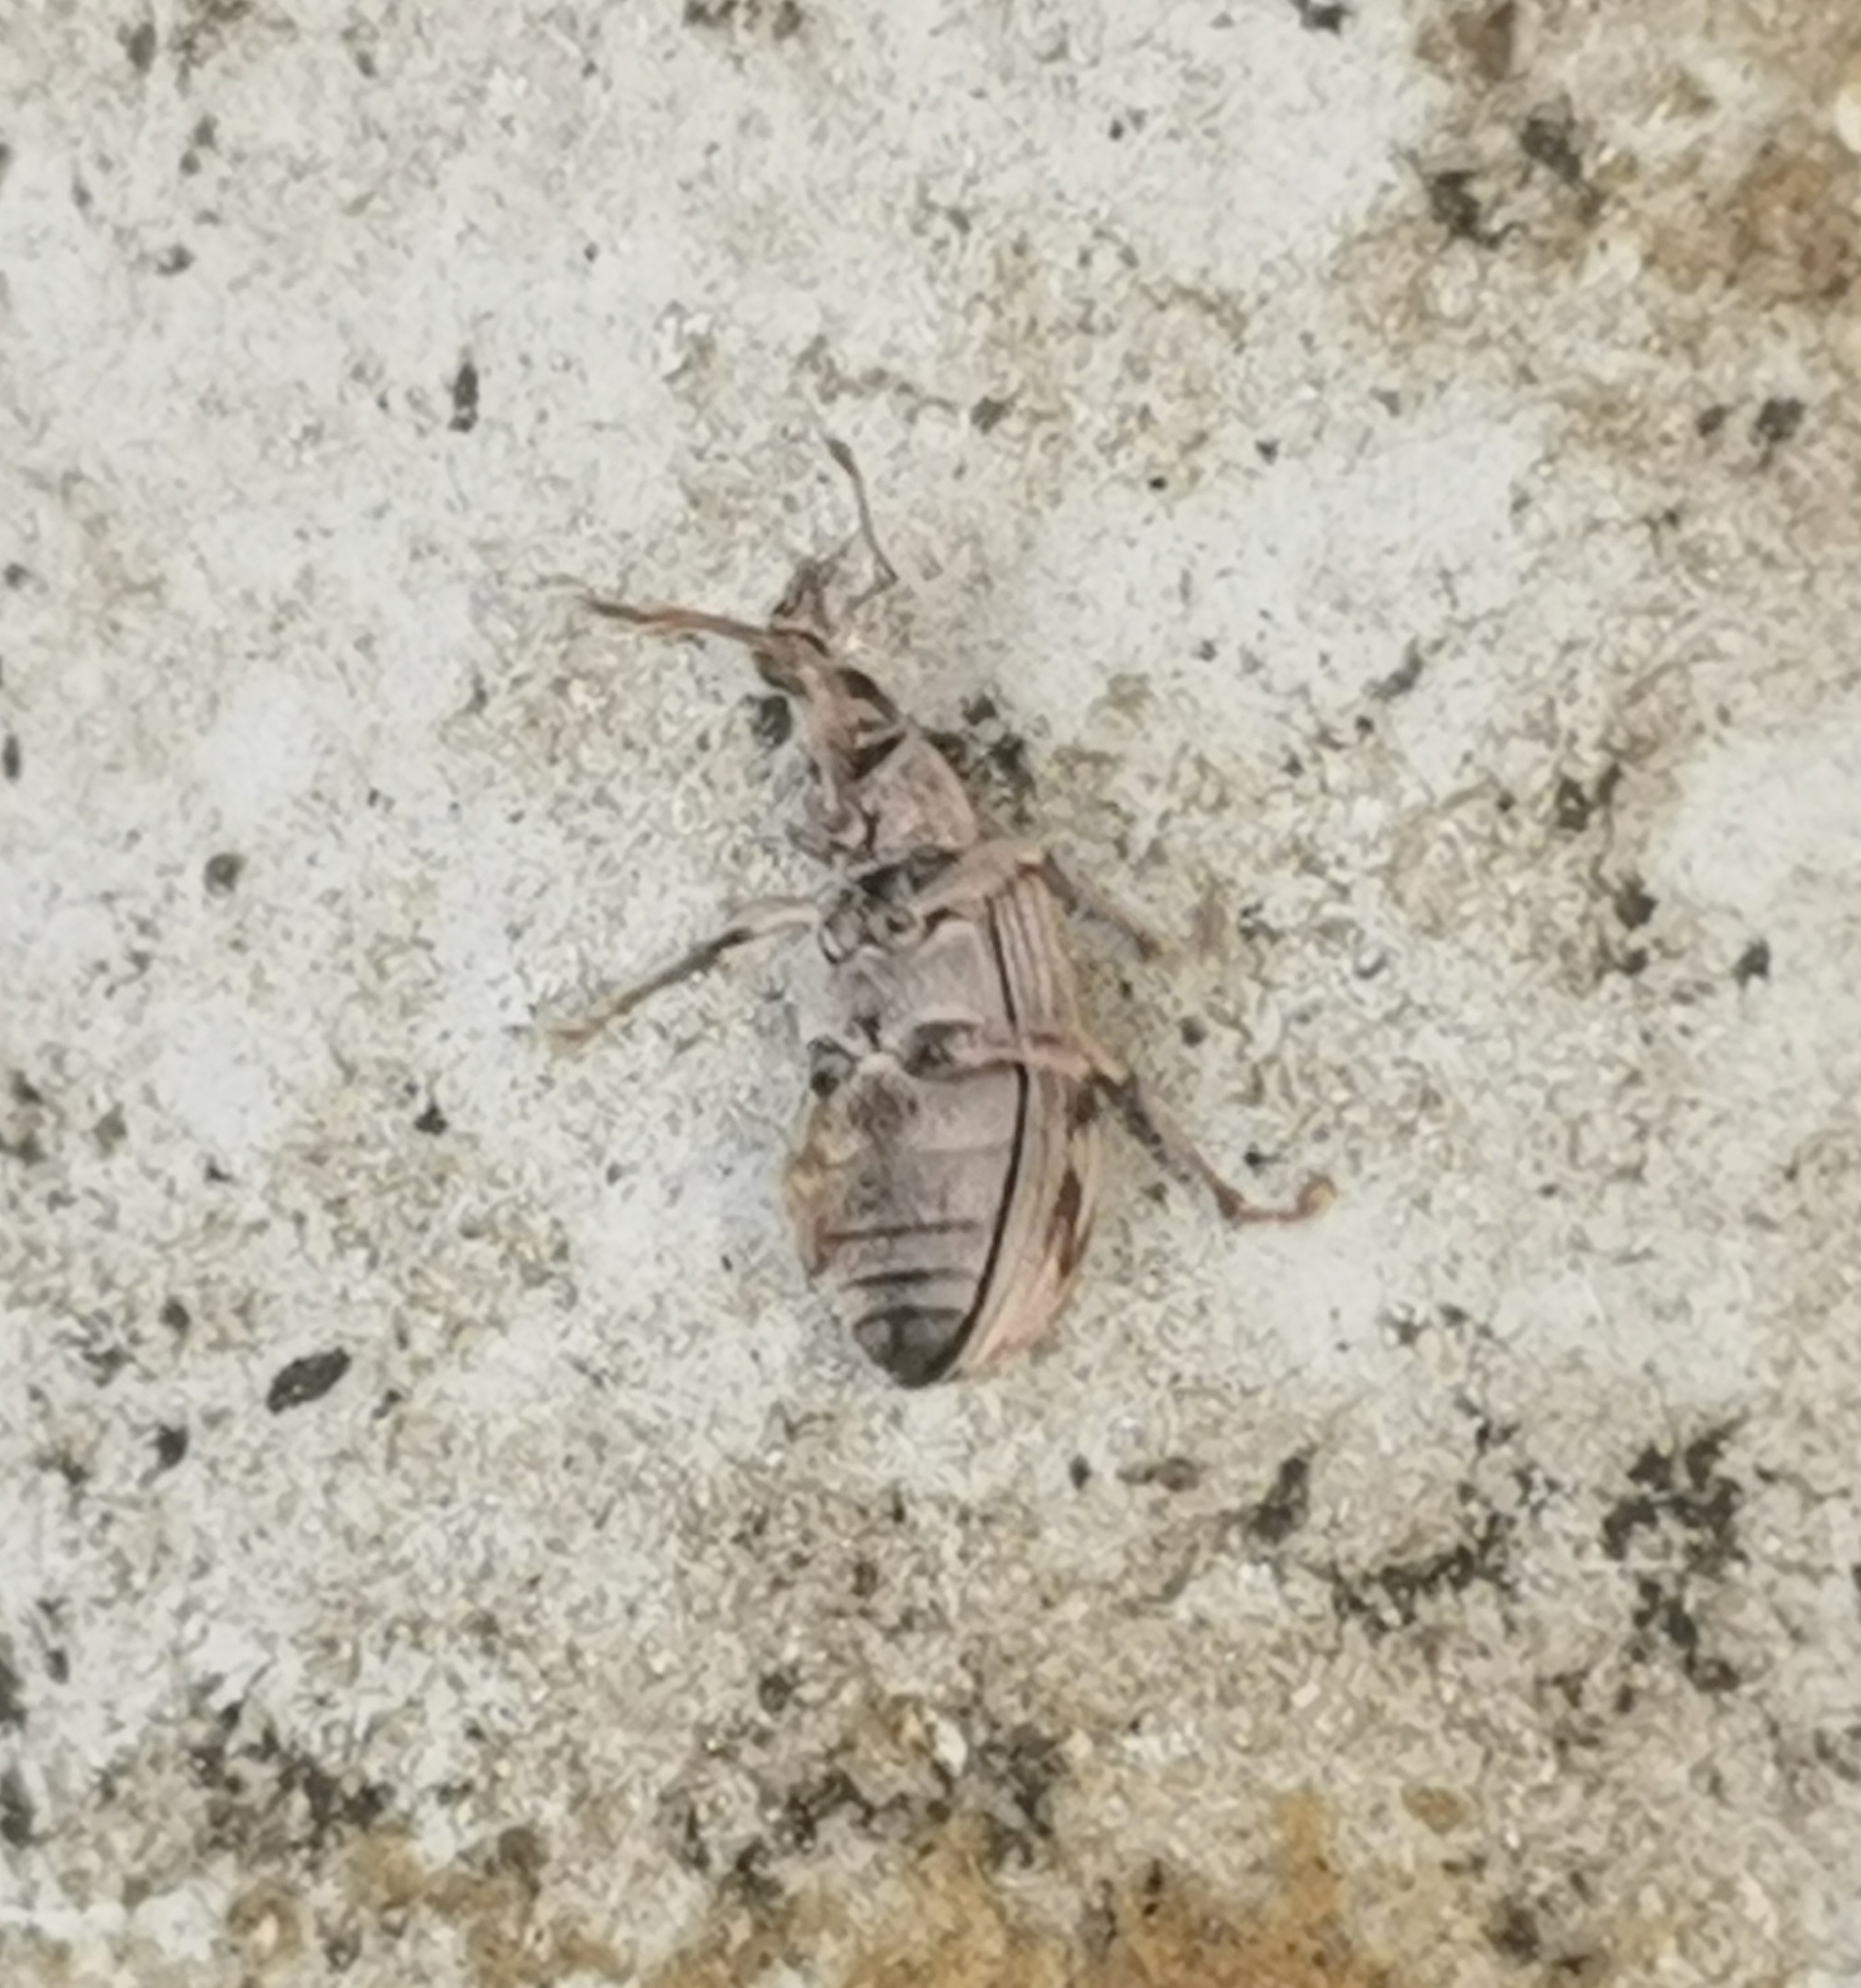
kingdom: Animalia
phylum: Arthropoda
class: Insecta
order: Coleoptera
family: Curculionidae
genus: Polydrusus
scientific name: Polydrusus tereticollis
